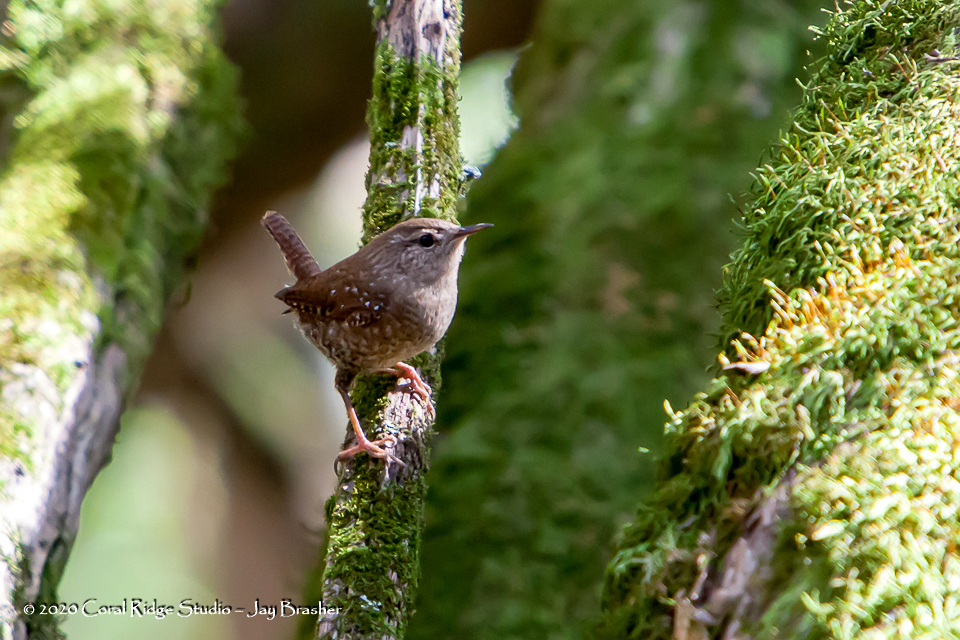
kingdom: Animalia
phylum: Chordata
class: Aves
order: Passeriformes
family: Troglodytidae
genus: Troglodytes
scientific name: Troglodytes hiemalis
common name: Winter wren
